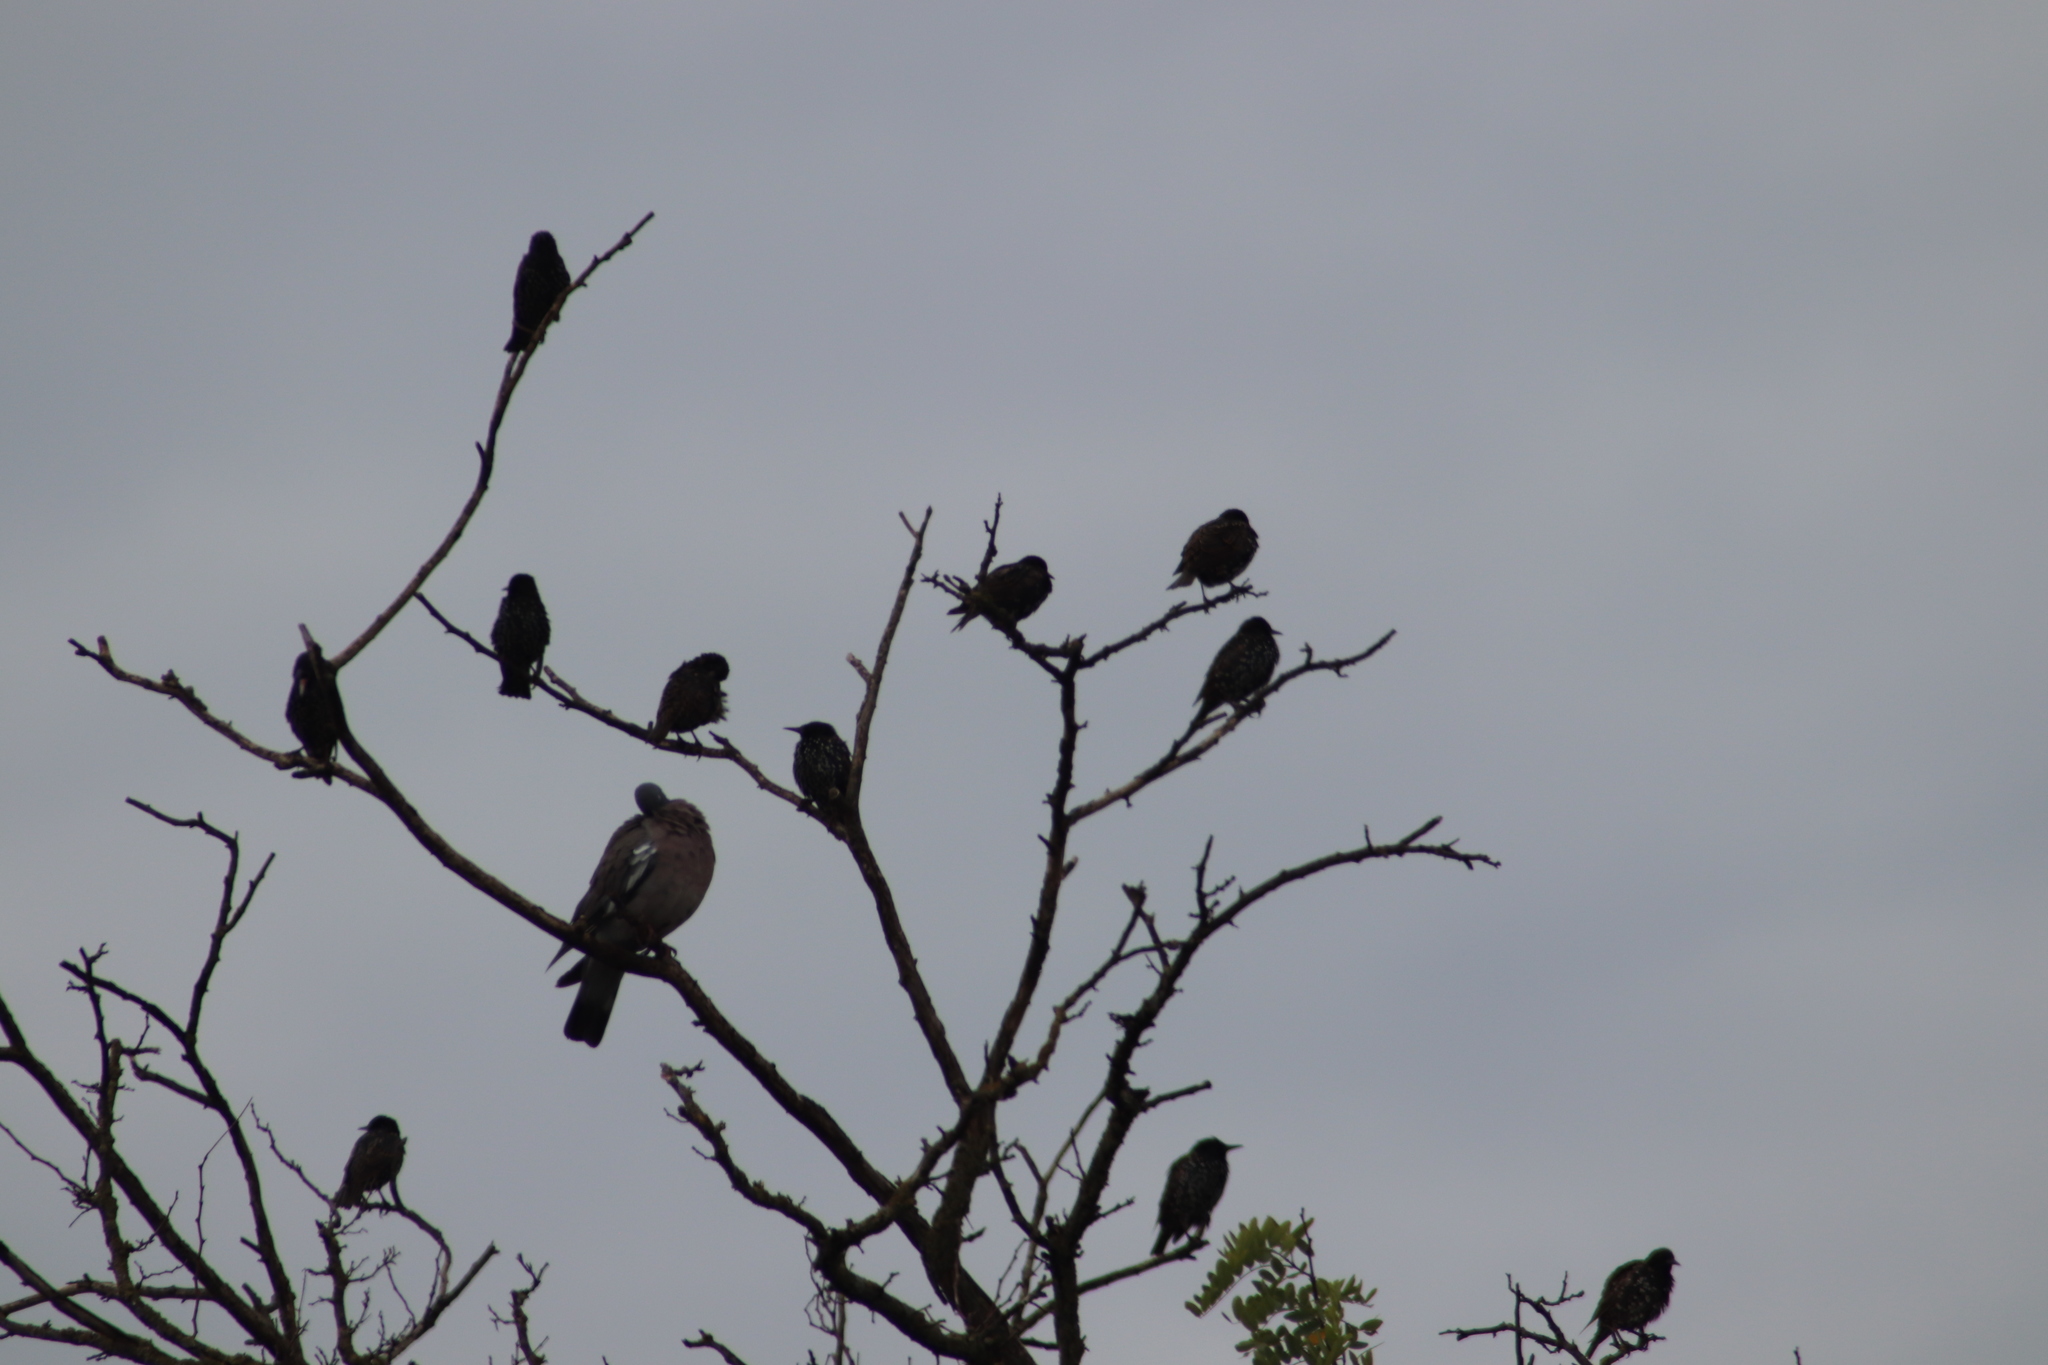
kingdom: Animalia
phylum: Chordata
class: Aves
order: Passeriformes
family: Sturnidae
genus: Sturnus
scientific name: Sturnus vulgaris
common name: Common starling
